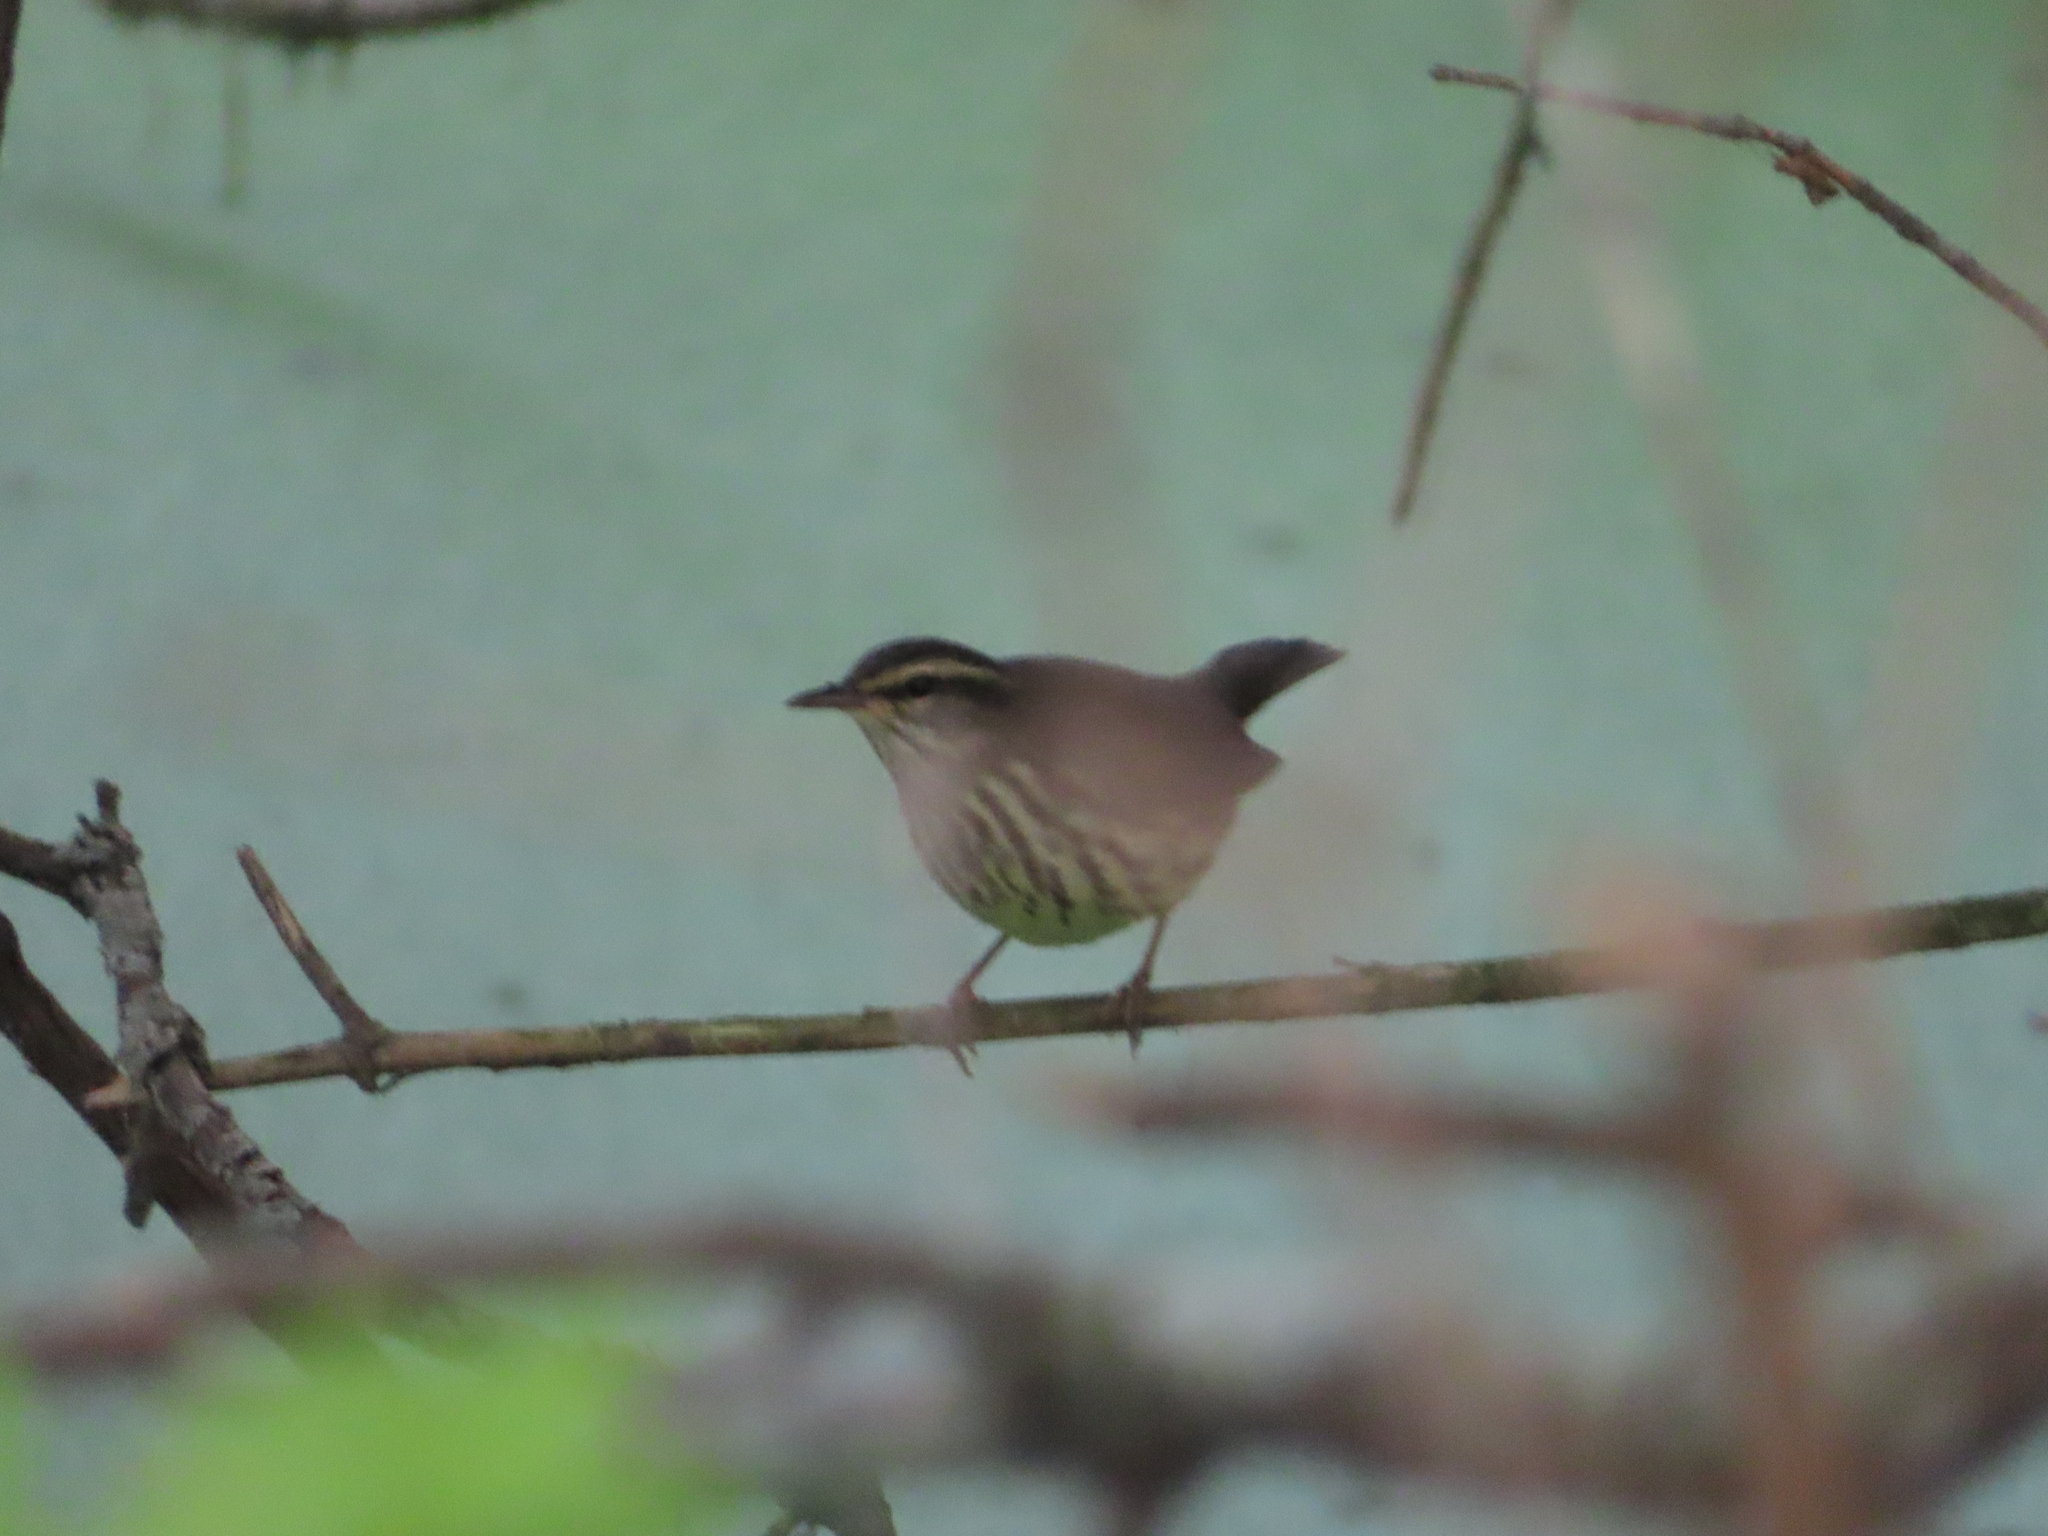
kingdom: Animalia
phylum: Chordata
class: Aves
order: Passeriformes
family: Parulidae
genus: Parkesia
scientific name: Parkesia noveboracensis
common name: Northern waterthrush
